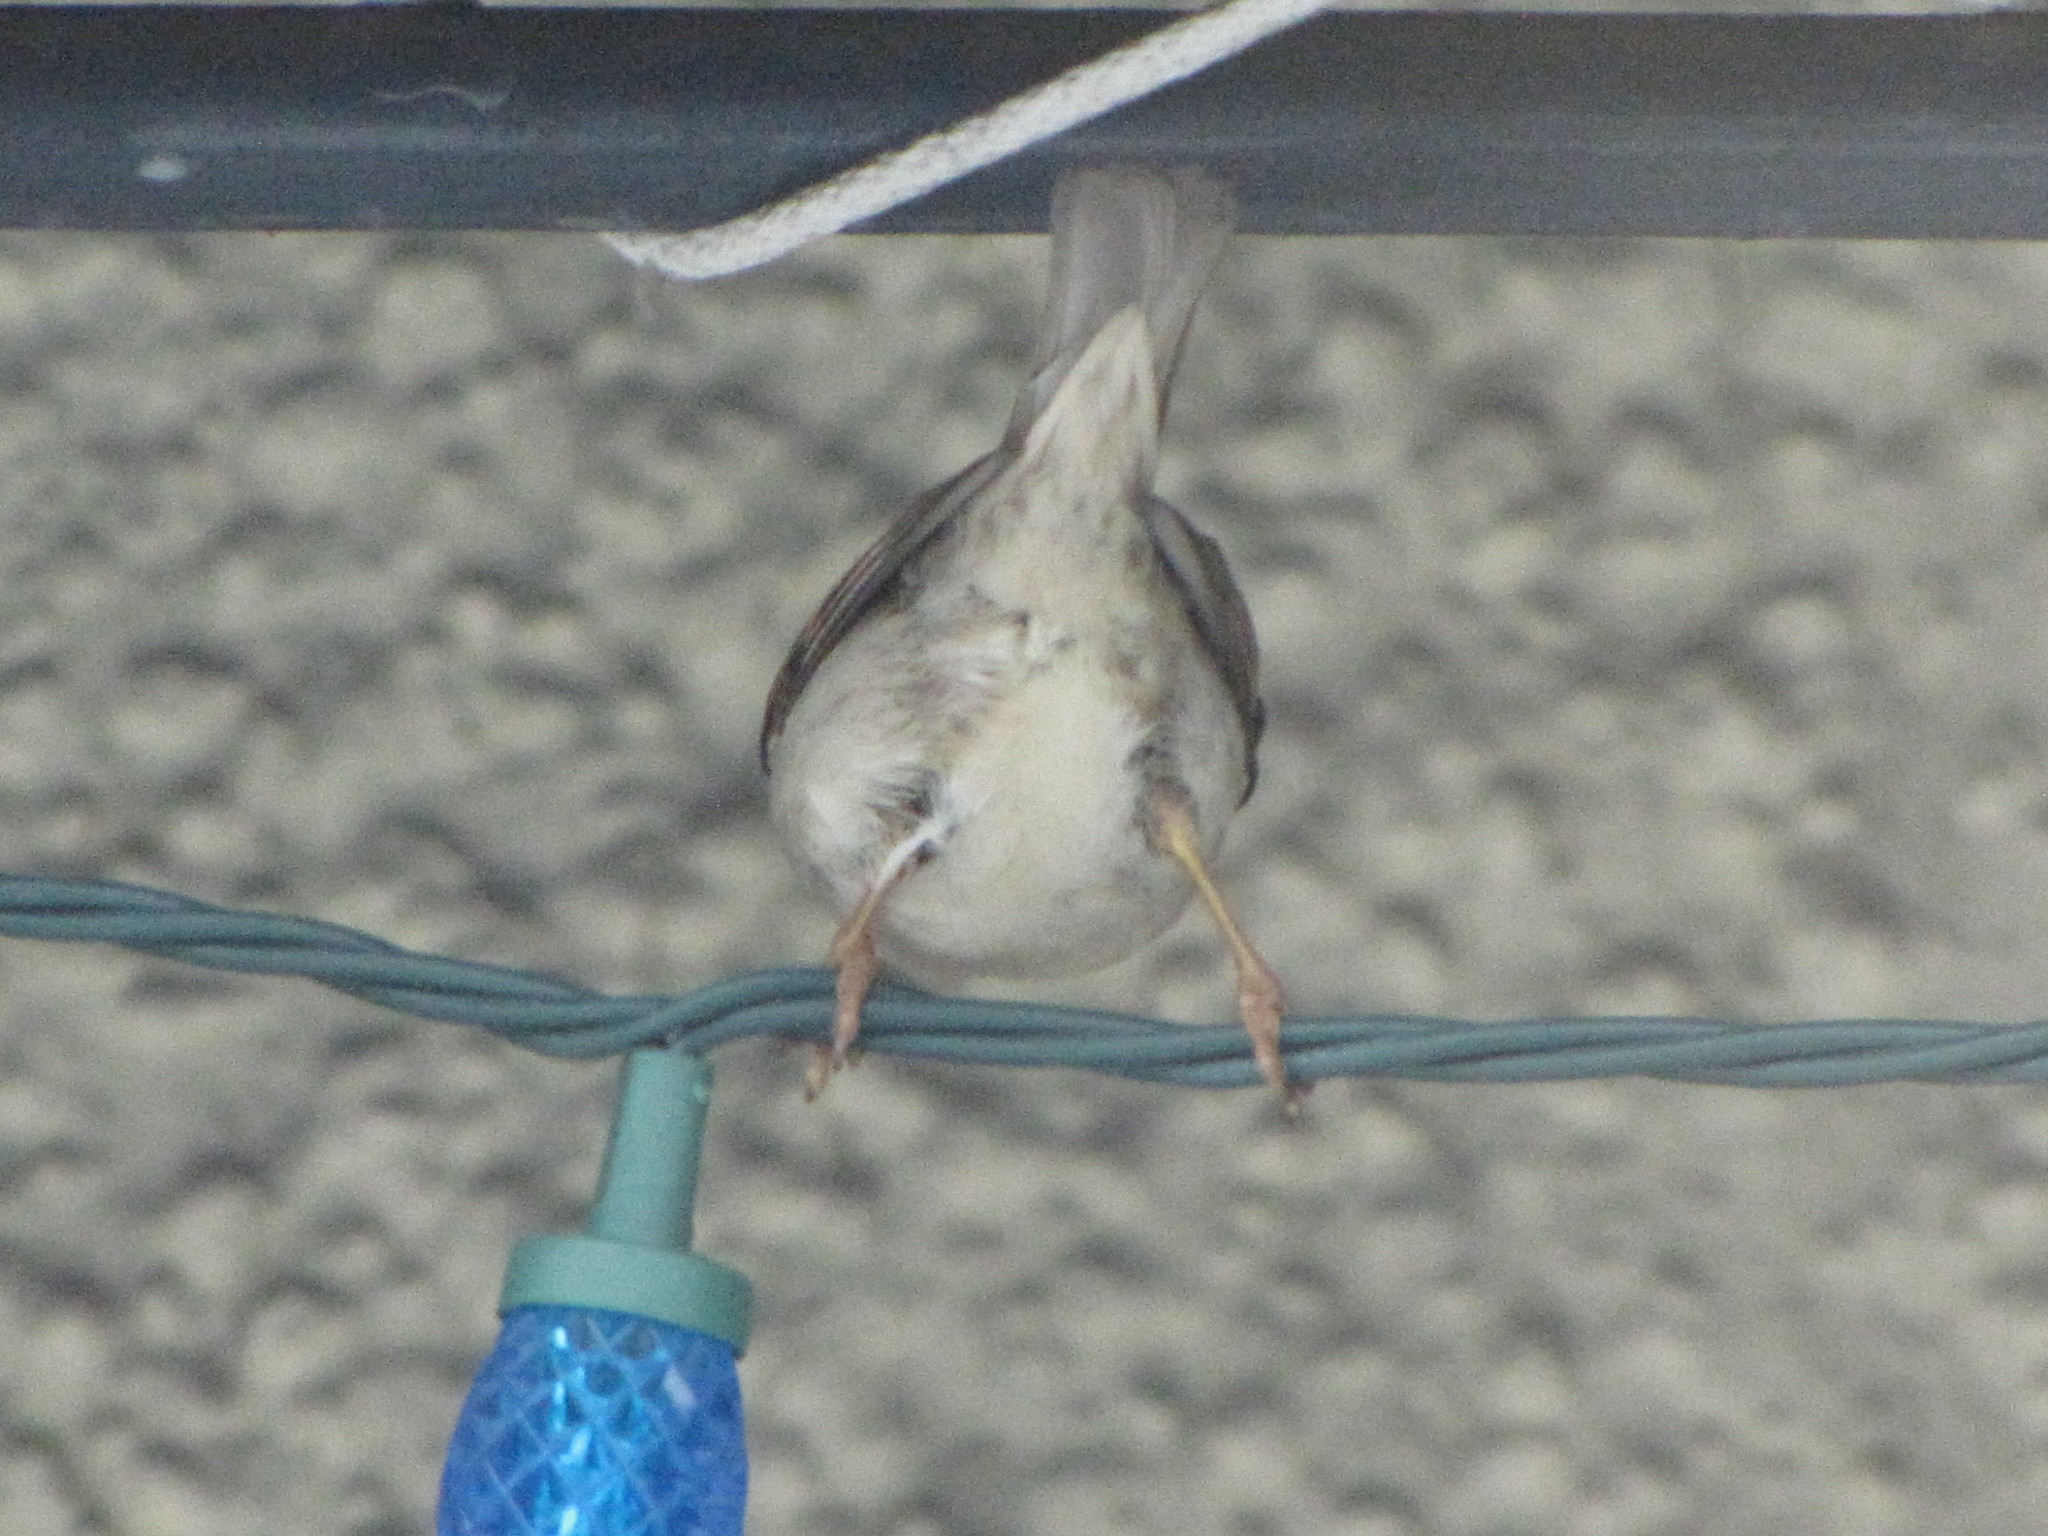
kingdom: Animalia
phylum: Chordata
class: Aves
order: Passeriformes
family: Passeridae
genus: Passer
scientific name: Passer domesticus
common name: House sparrow
